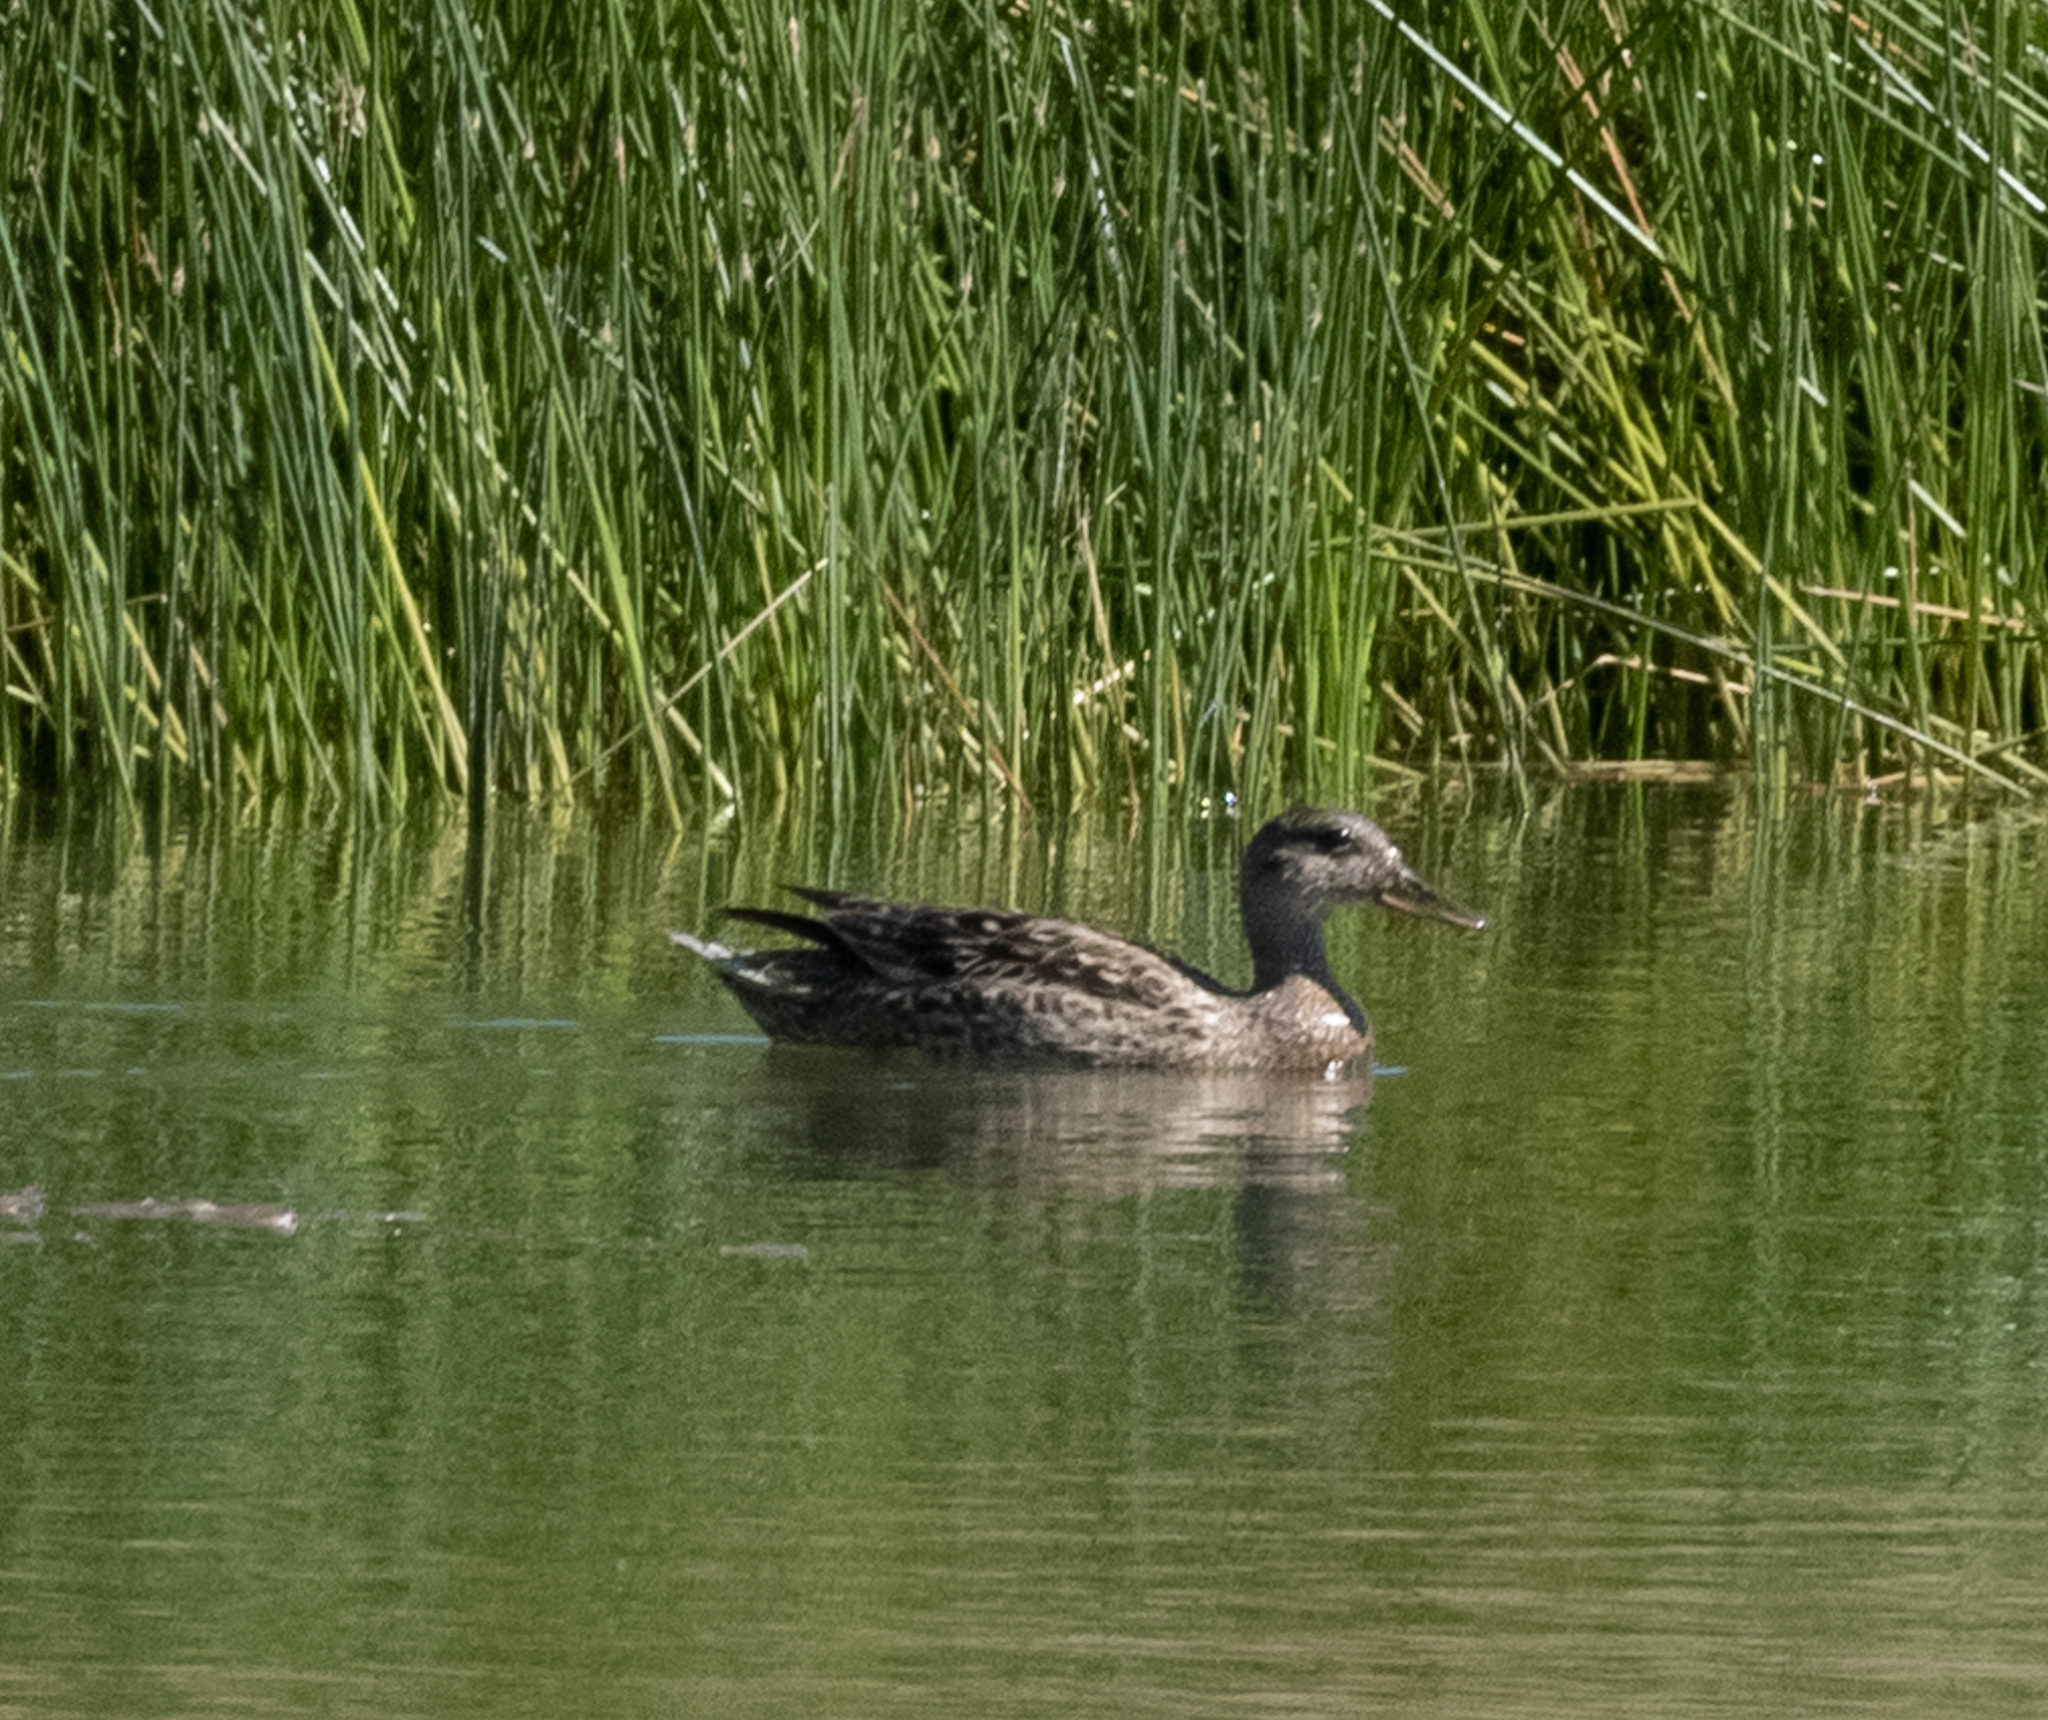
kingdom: Animalia
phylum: Chordata
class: Aves
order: Anseriformes
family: Anatidae
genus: Mareca
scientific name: Mareca strepera
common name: Gadwall
